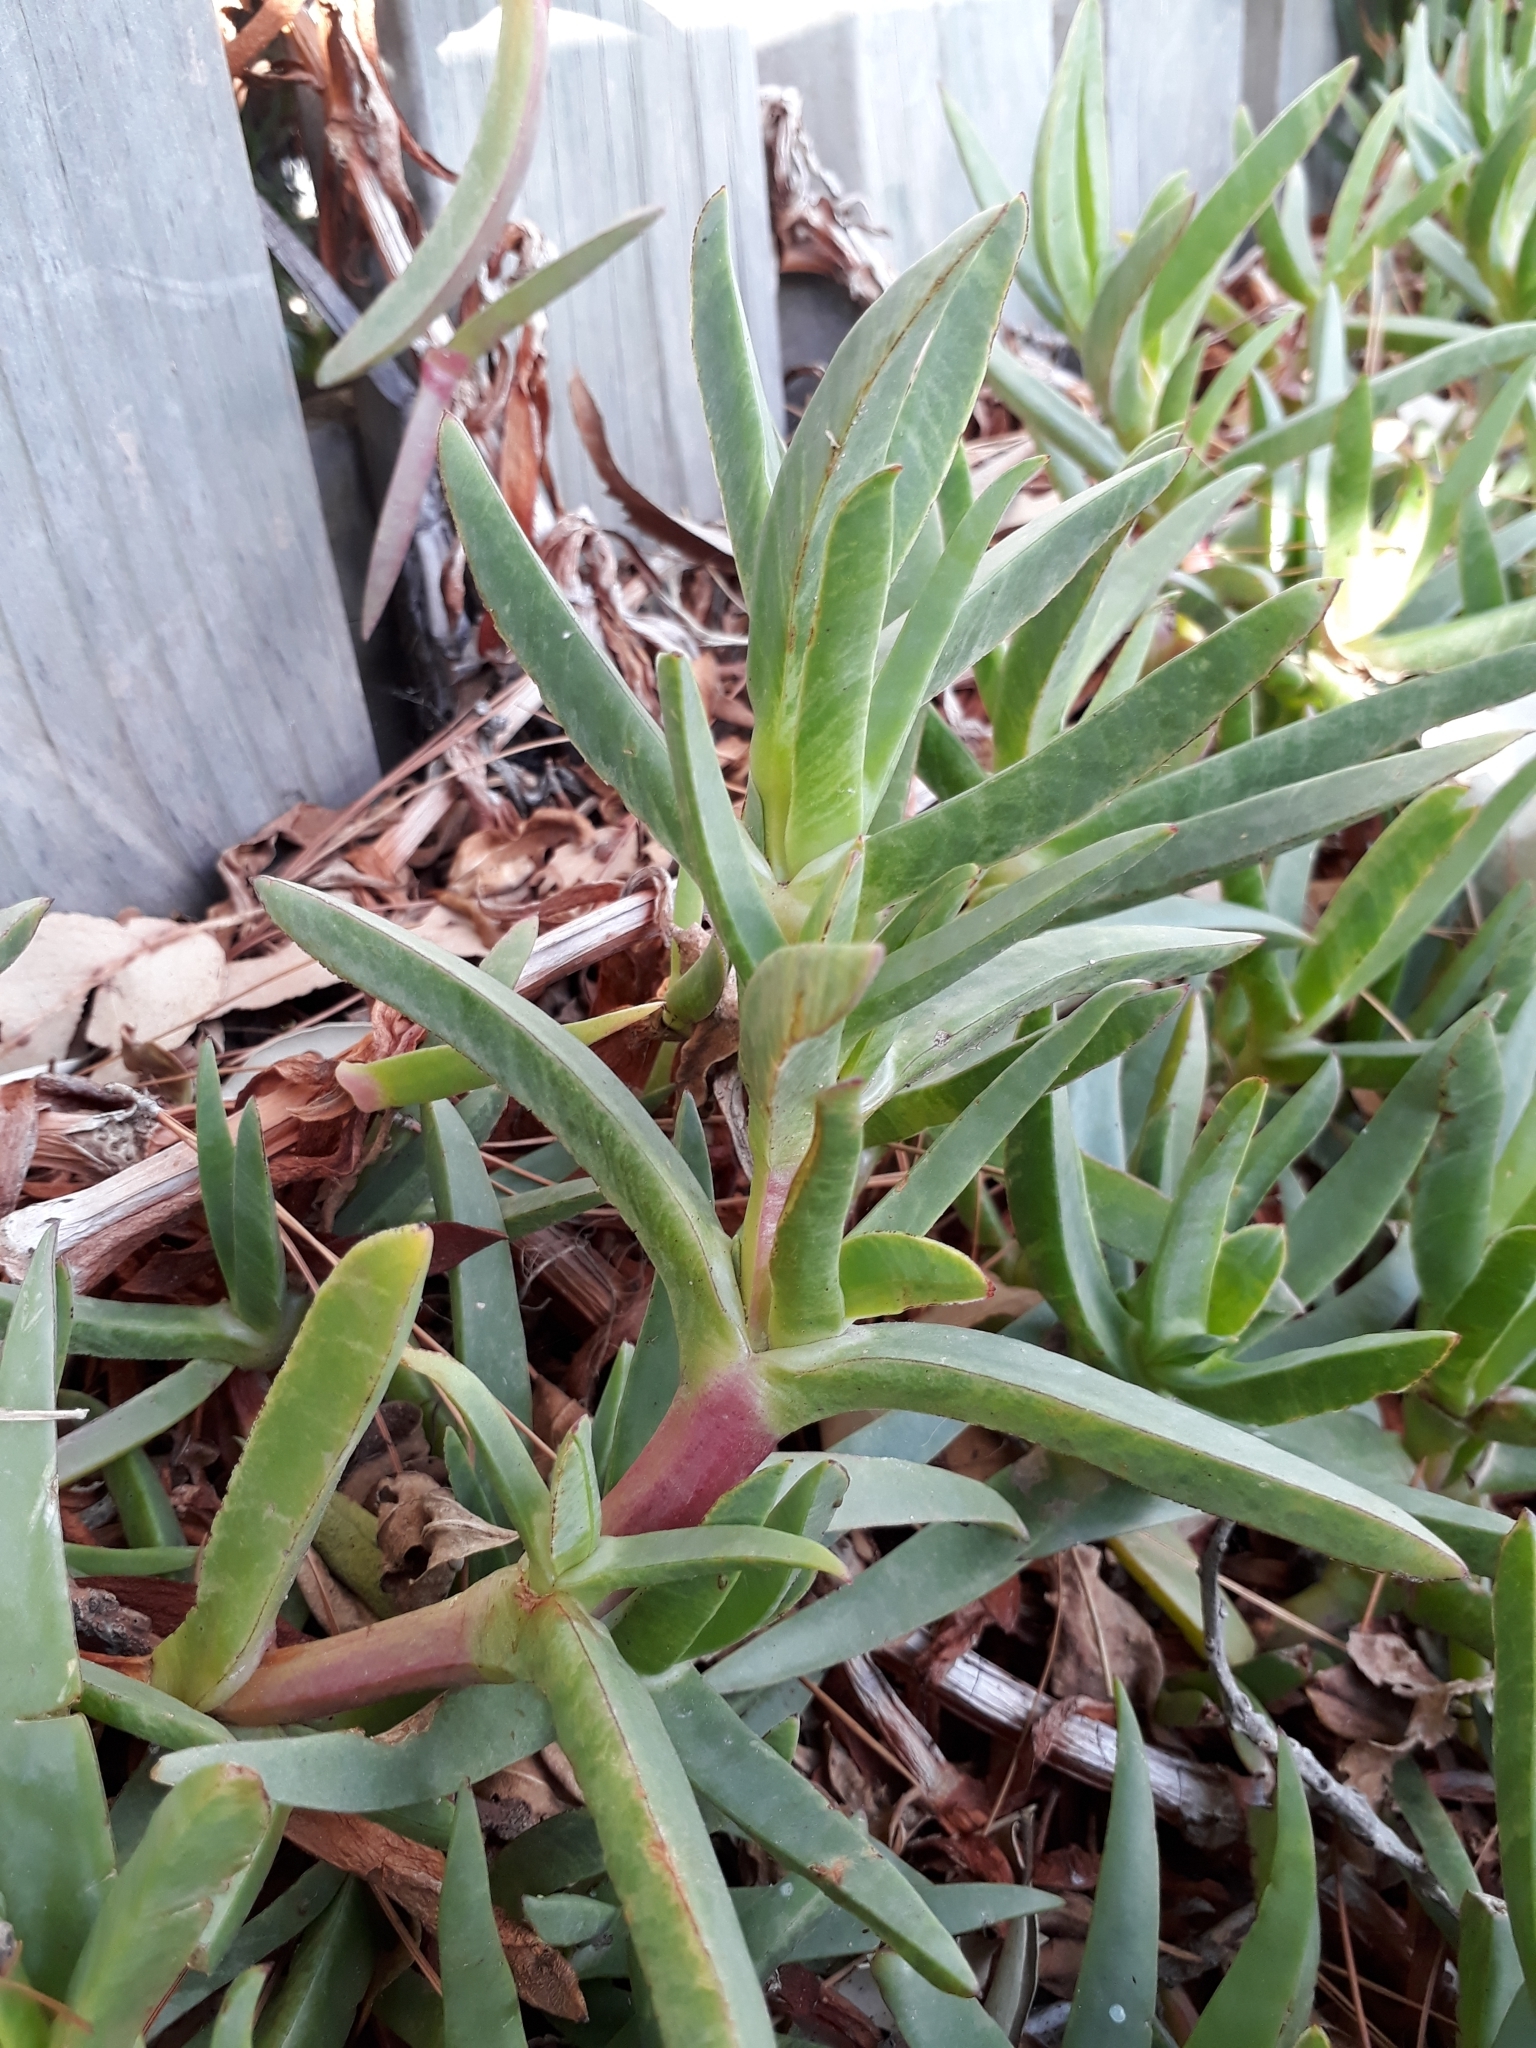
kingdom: Plantae
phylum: Tracheophyta
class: Magnoliopsida
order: Caryophyllales
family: Aizoaceae
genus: Carpobrotus
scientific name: Carpobrotus edulis
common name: Hottentot-fig
